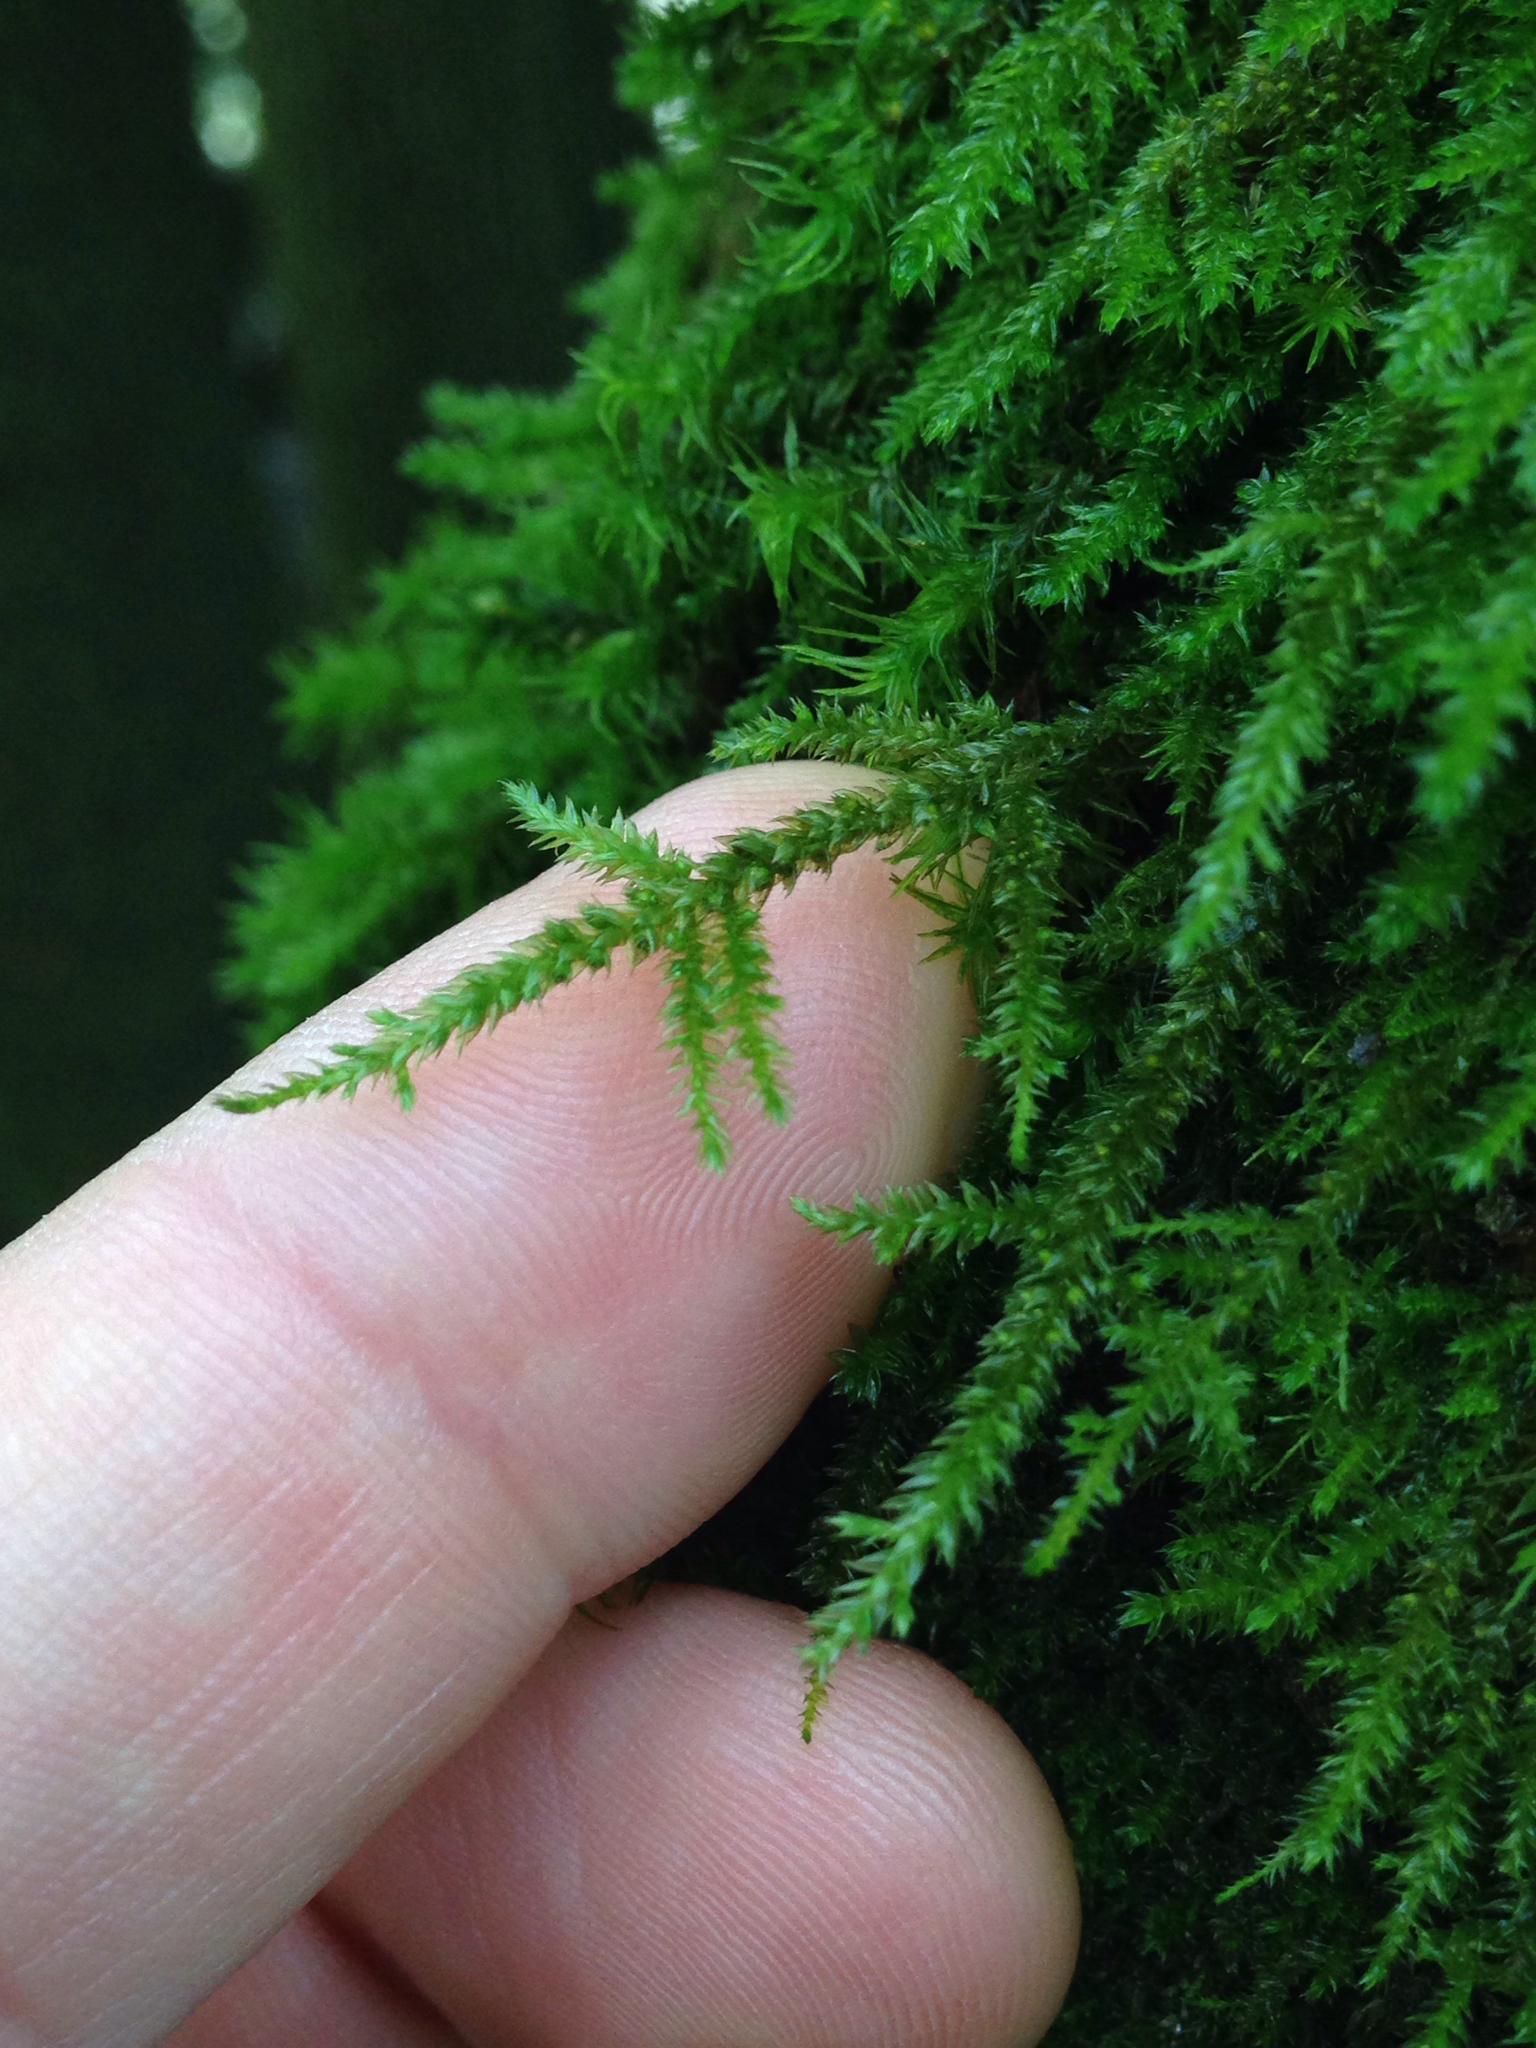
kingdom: Plantae
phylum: Bryophyta
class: Bryopsida
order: Hypnales
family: Neckeraceae
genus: Neckera
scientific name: Neckera californica
